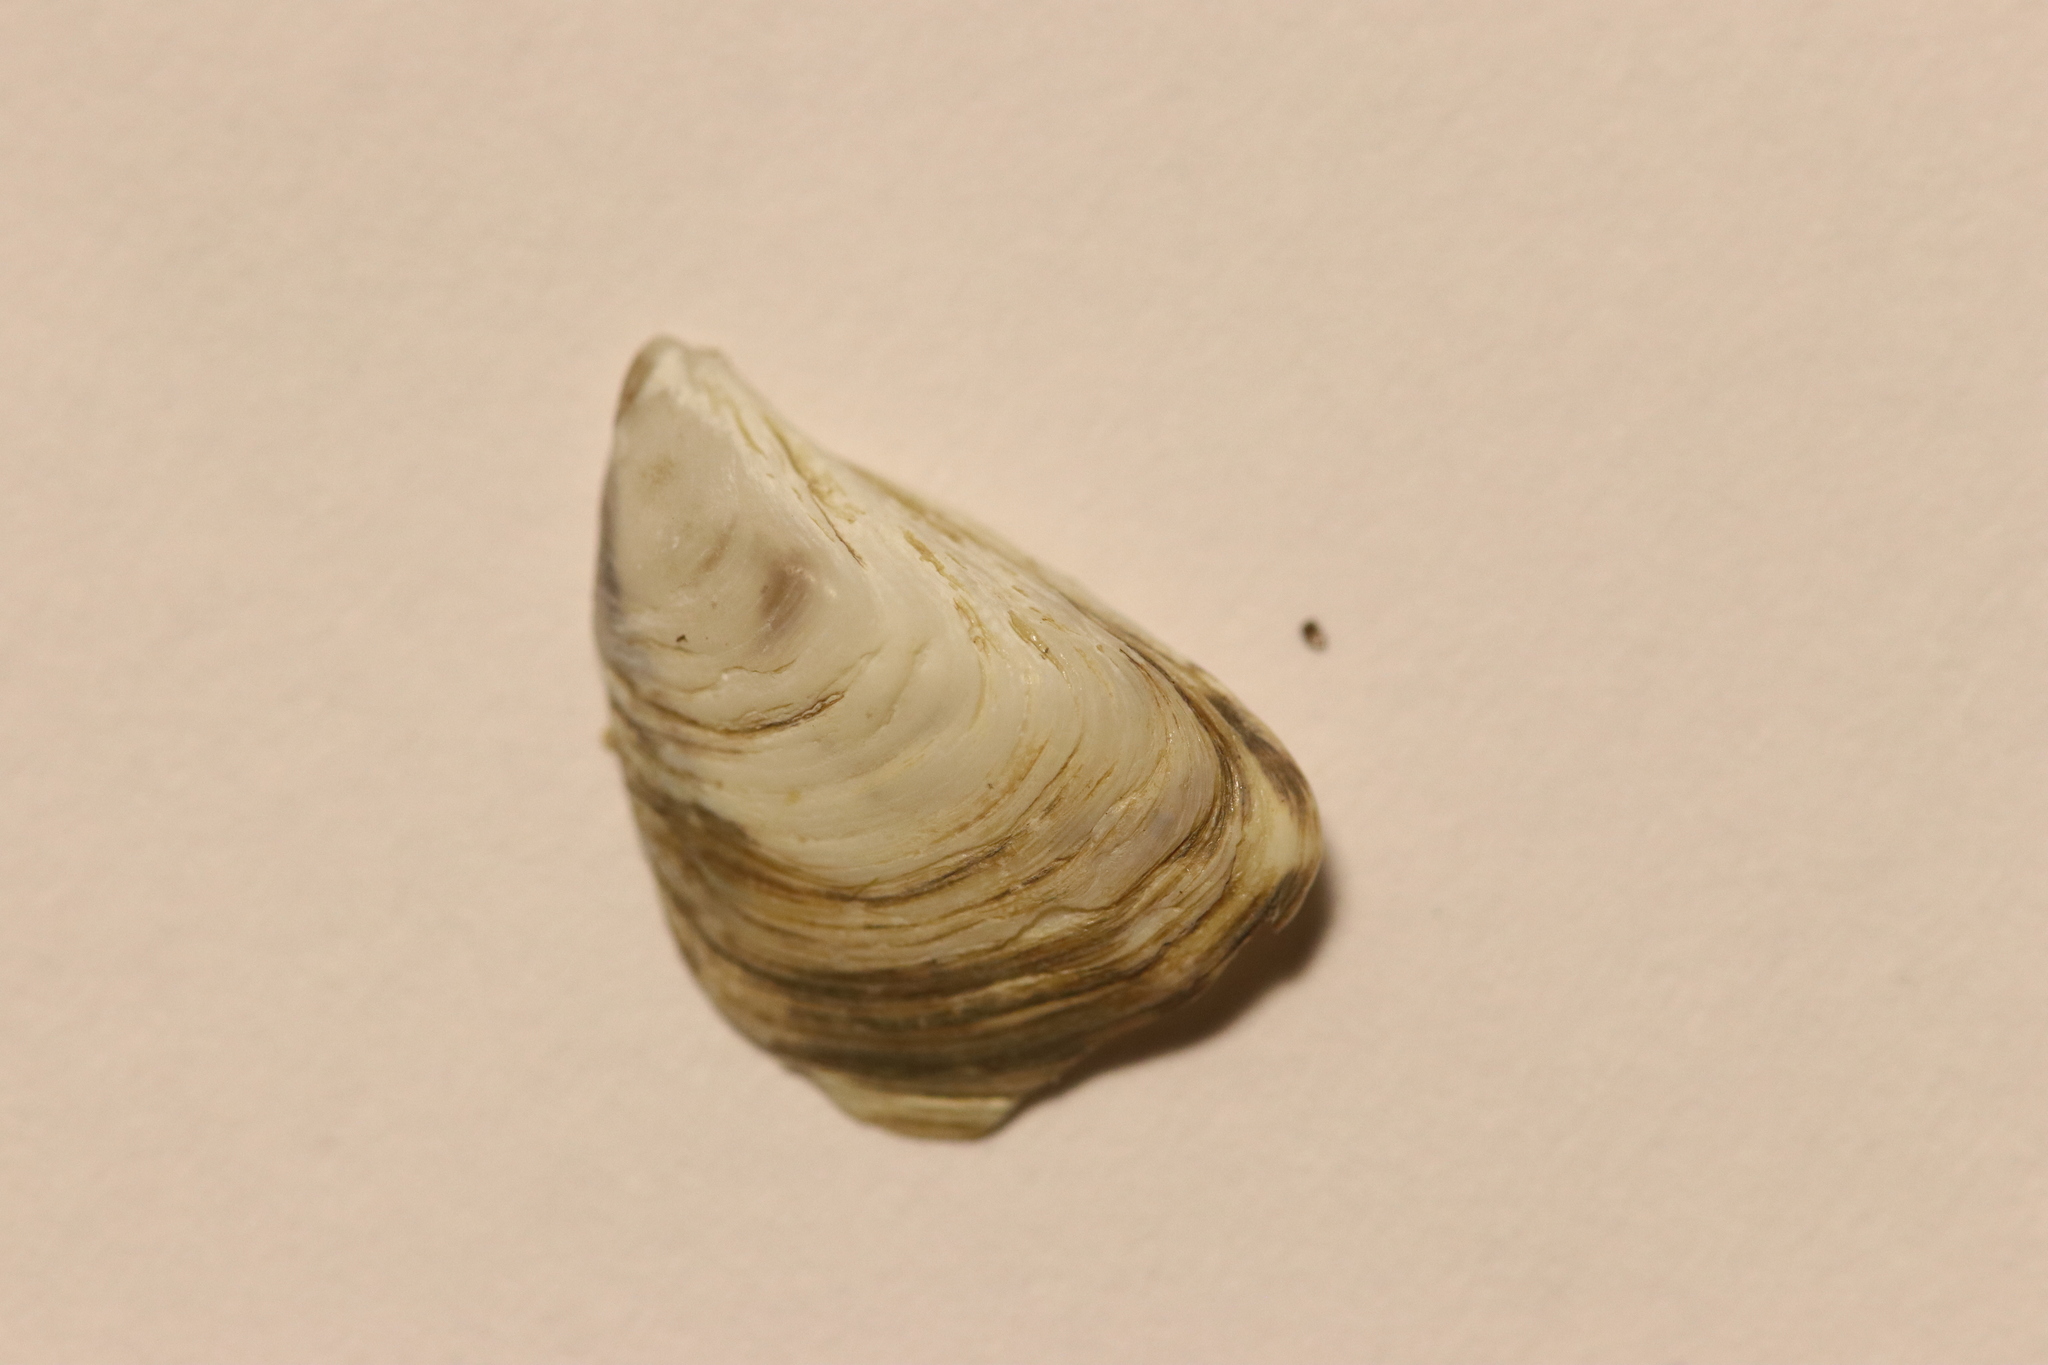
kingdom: Animalia
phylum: Mollusca
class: Bivalvia
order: Myida
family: Dreissenidae
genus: Dreissena
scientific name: Dreissena bugensis
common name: Quagga mussel
